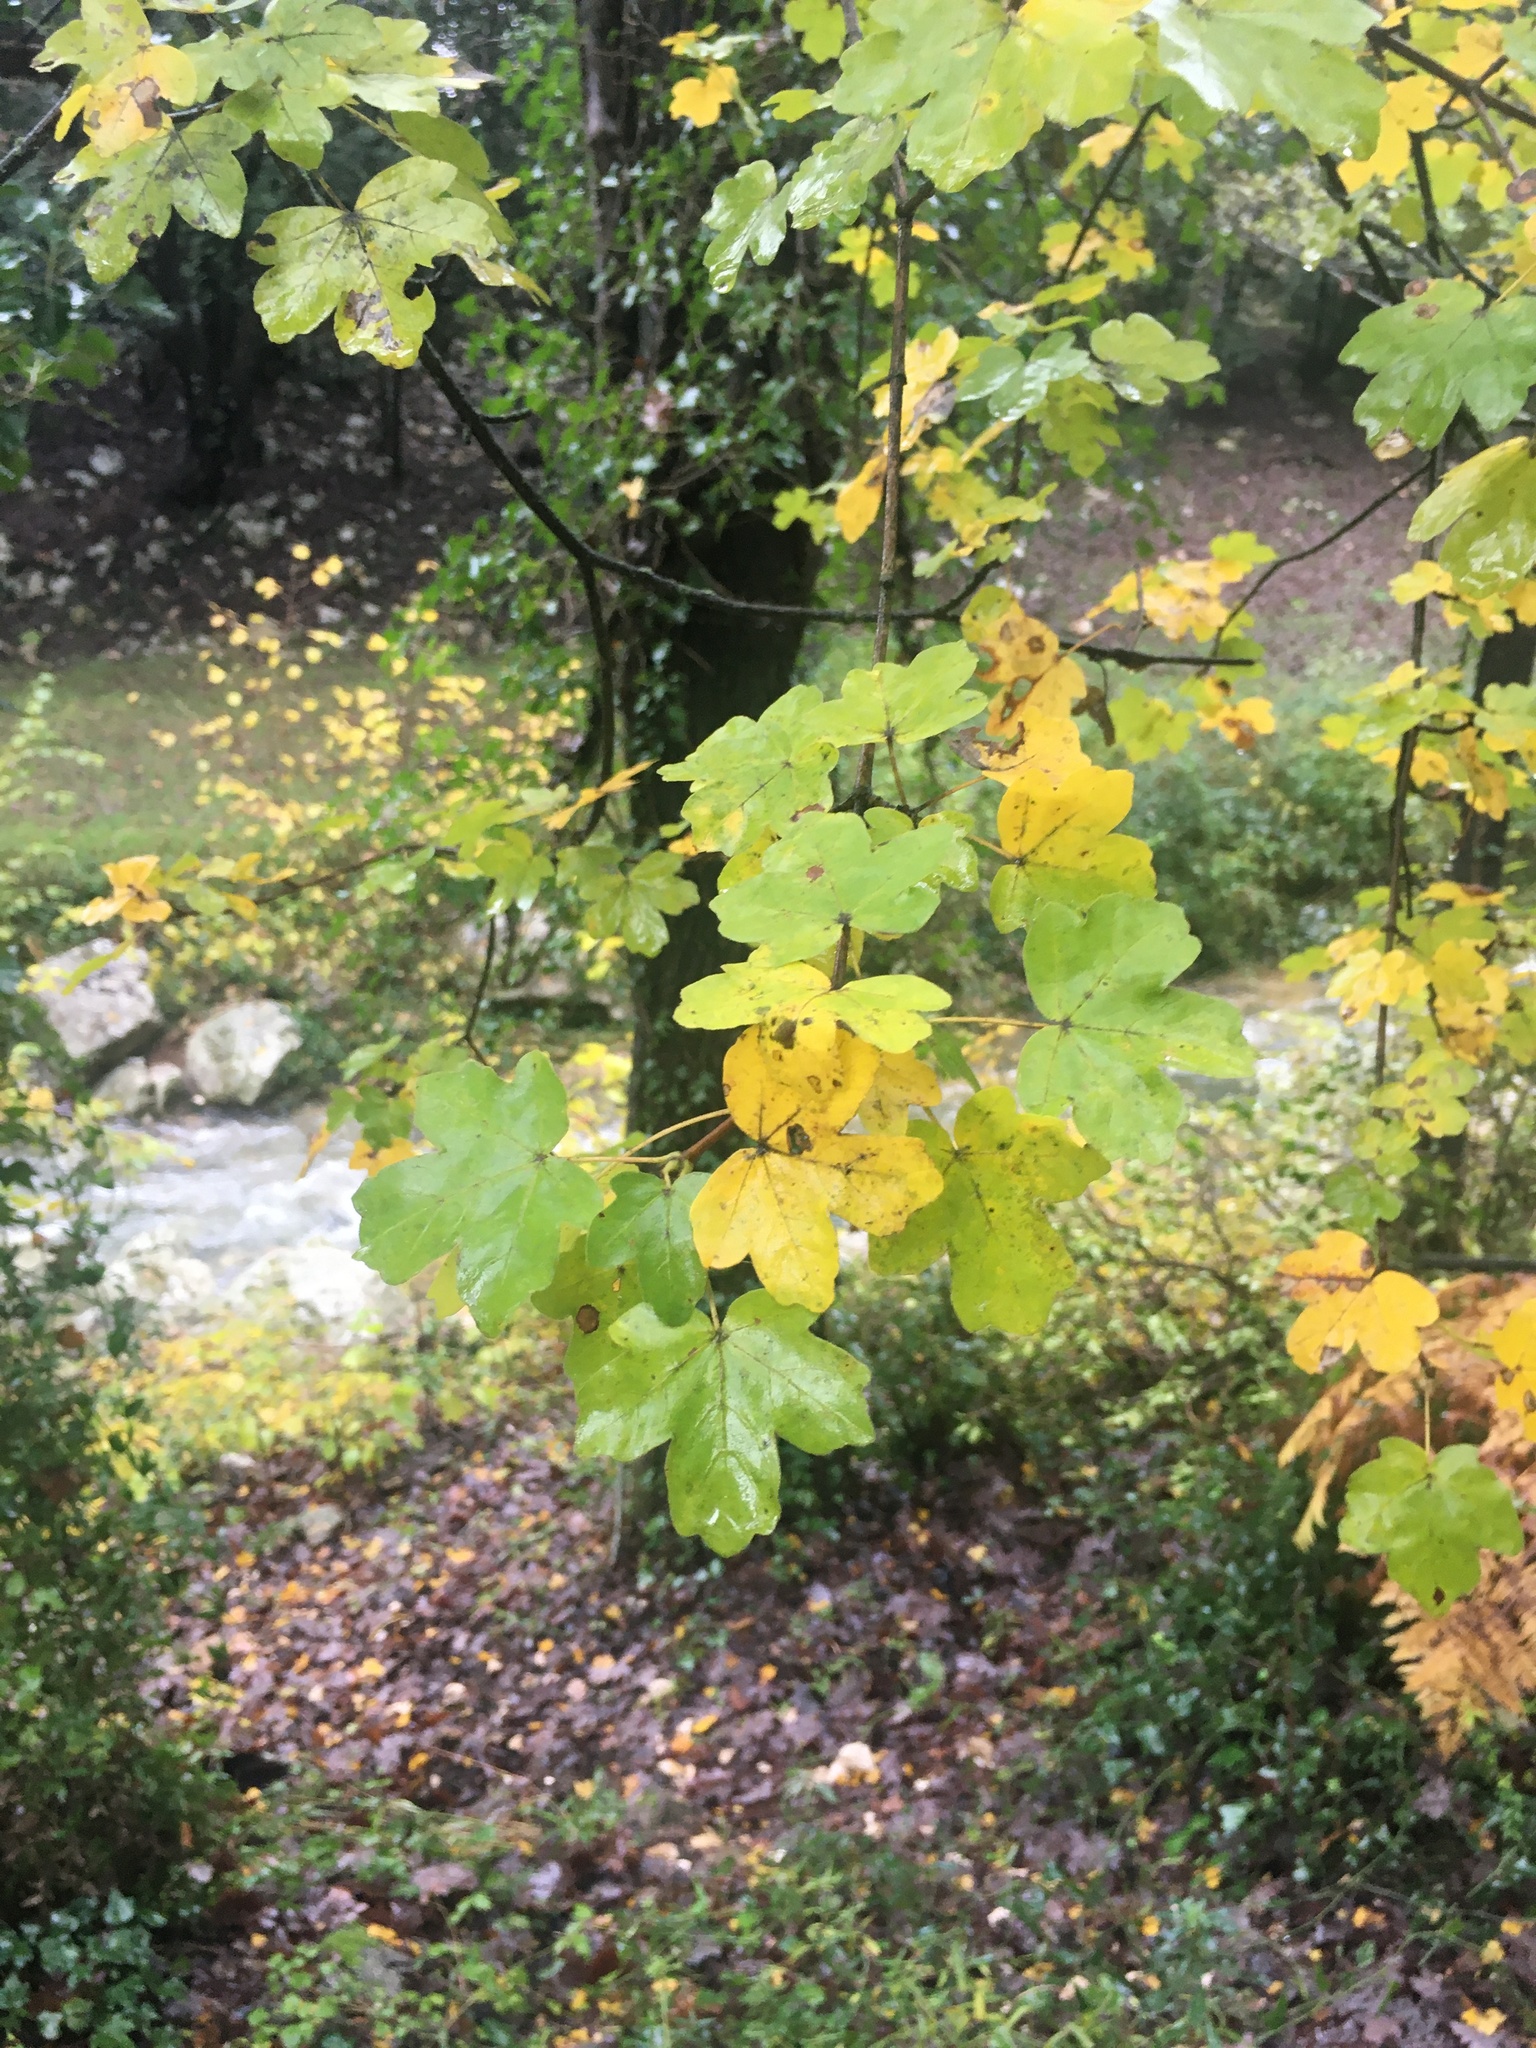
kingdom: Plantae
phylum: Tracheophyta
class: Magnoliopsida
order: Sapindales
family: Sapindaceae
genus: Acer
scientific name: Acer campestre
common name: Field maple
